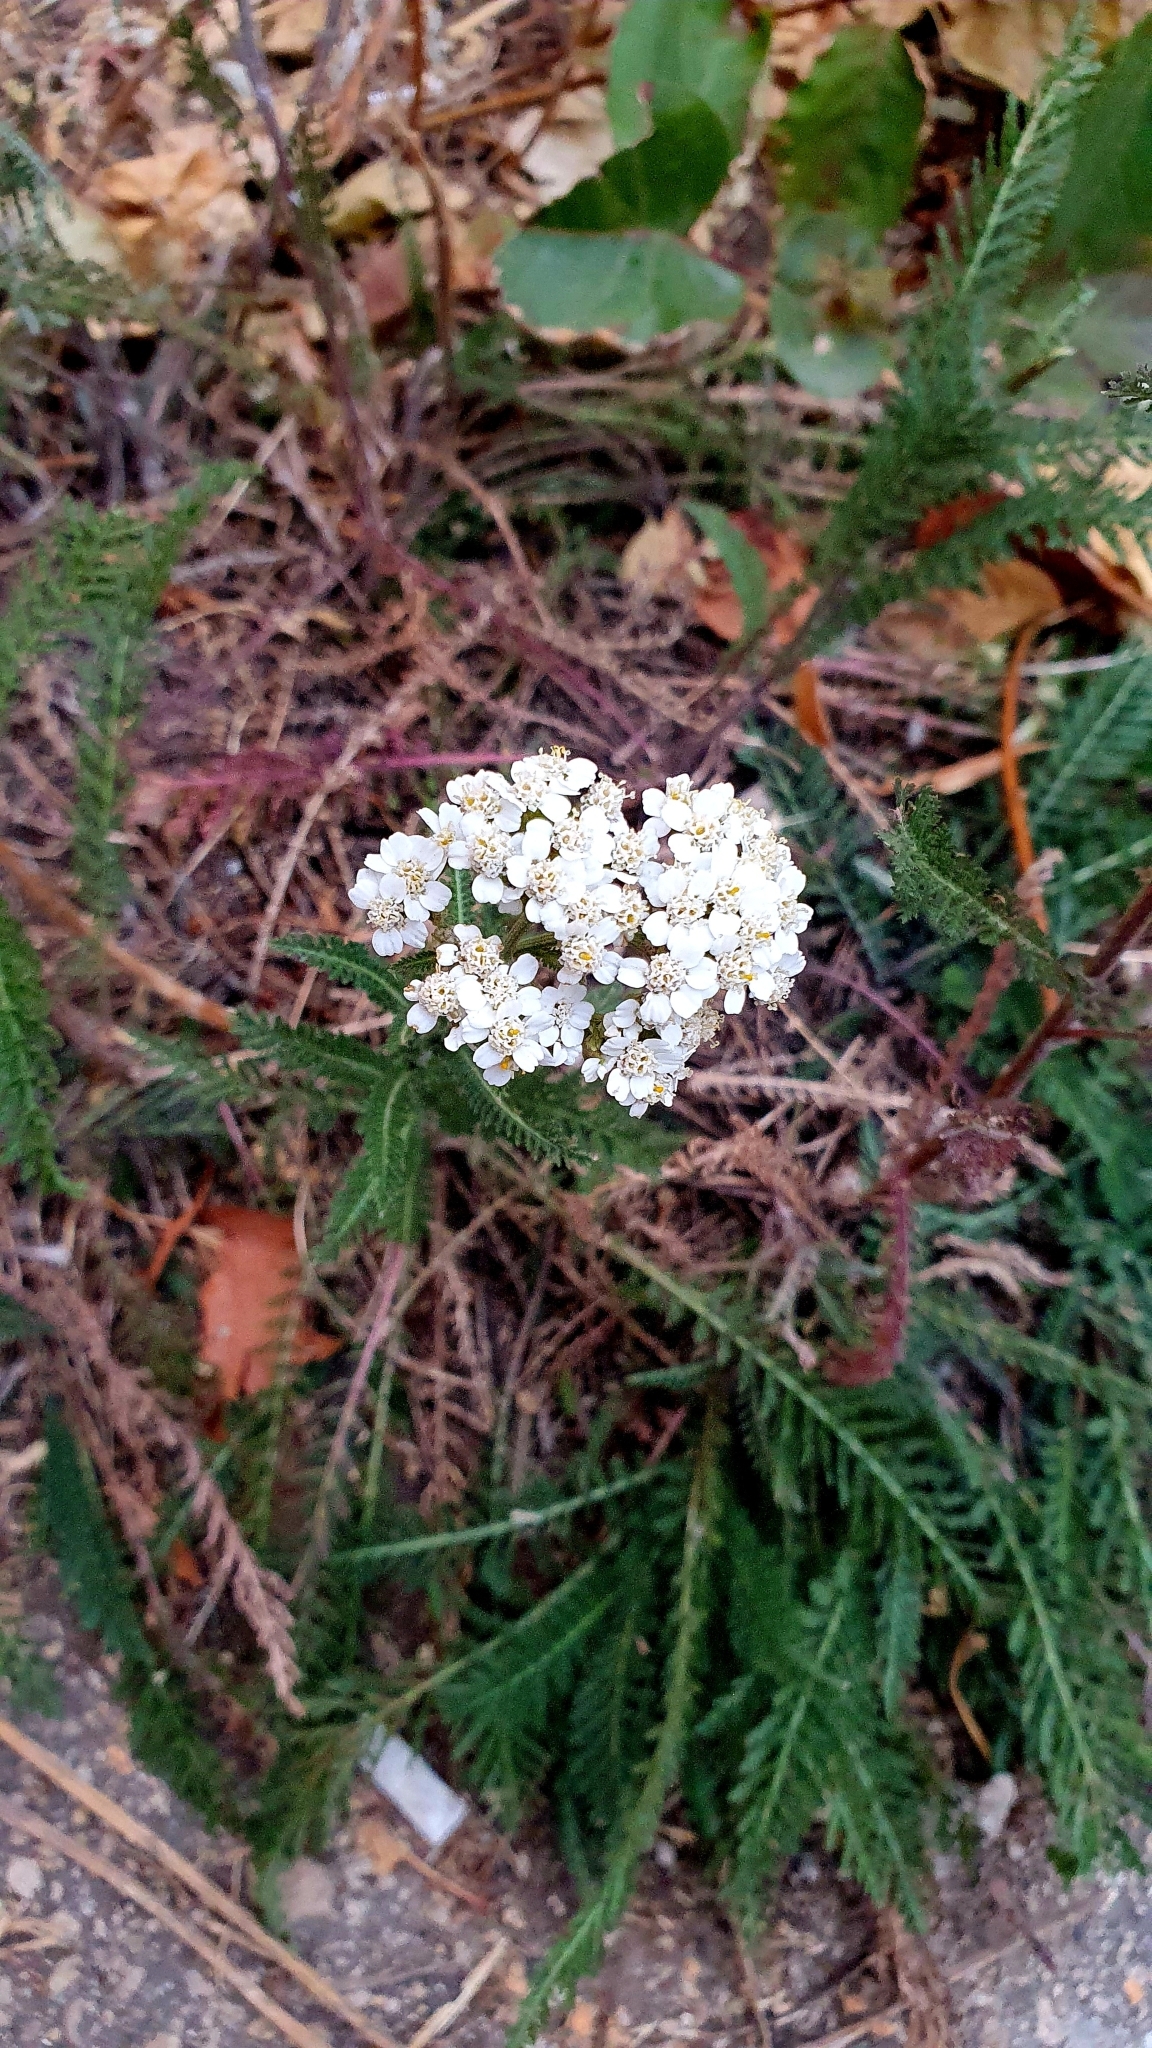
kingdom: Plantae
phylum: Tracheophyta
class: Magnoliopsida
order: Asterales
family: Asteraceae
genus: Achillea
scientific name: Achillea millefolium
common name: Yarrow
